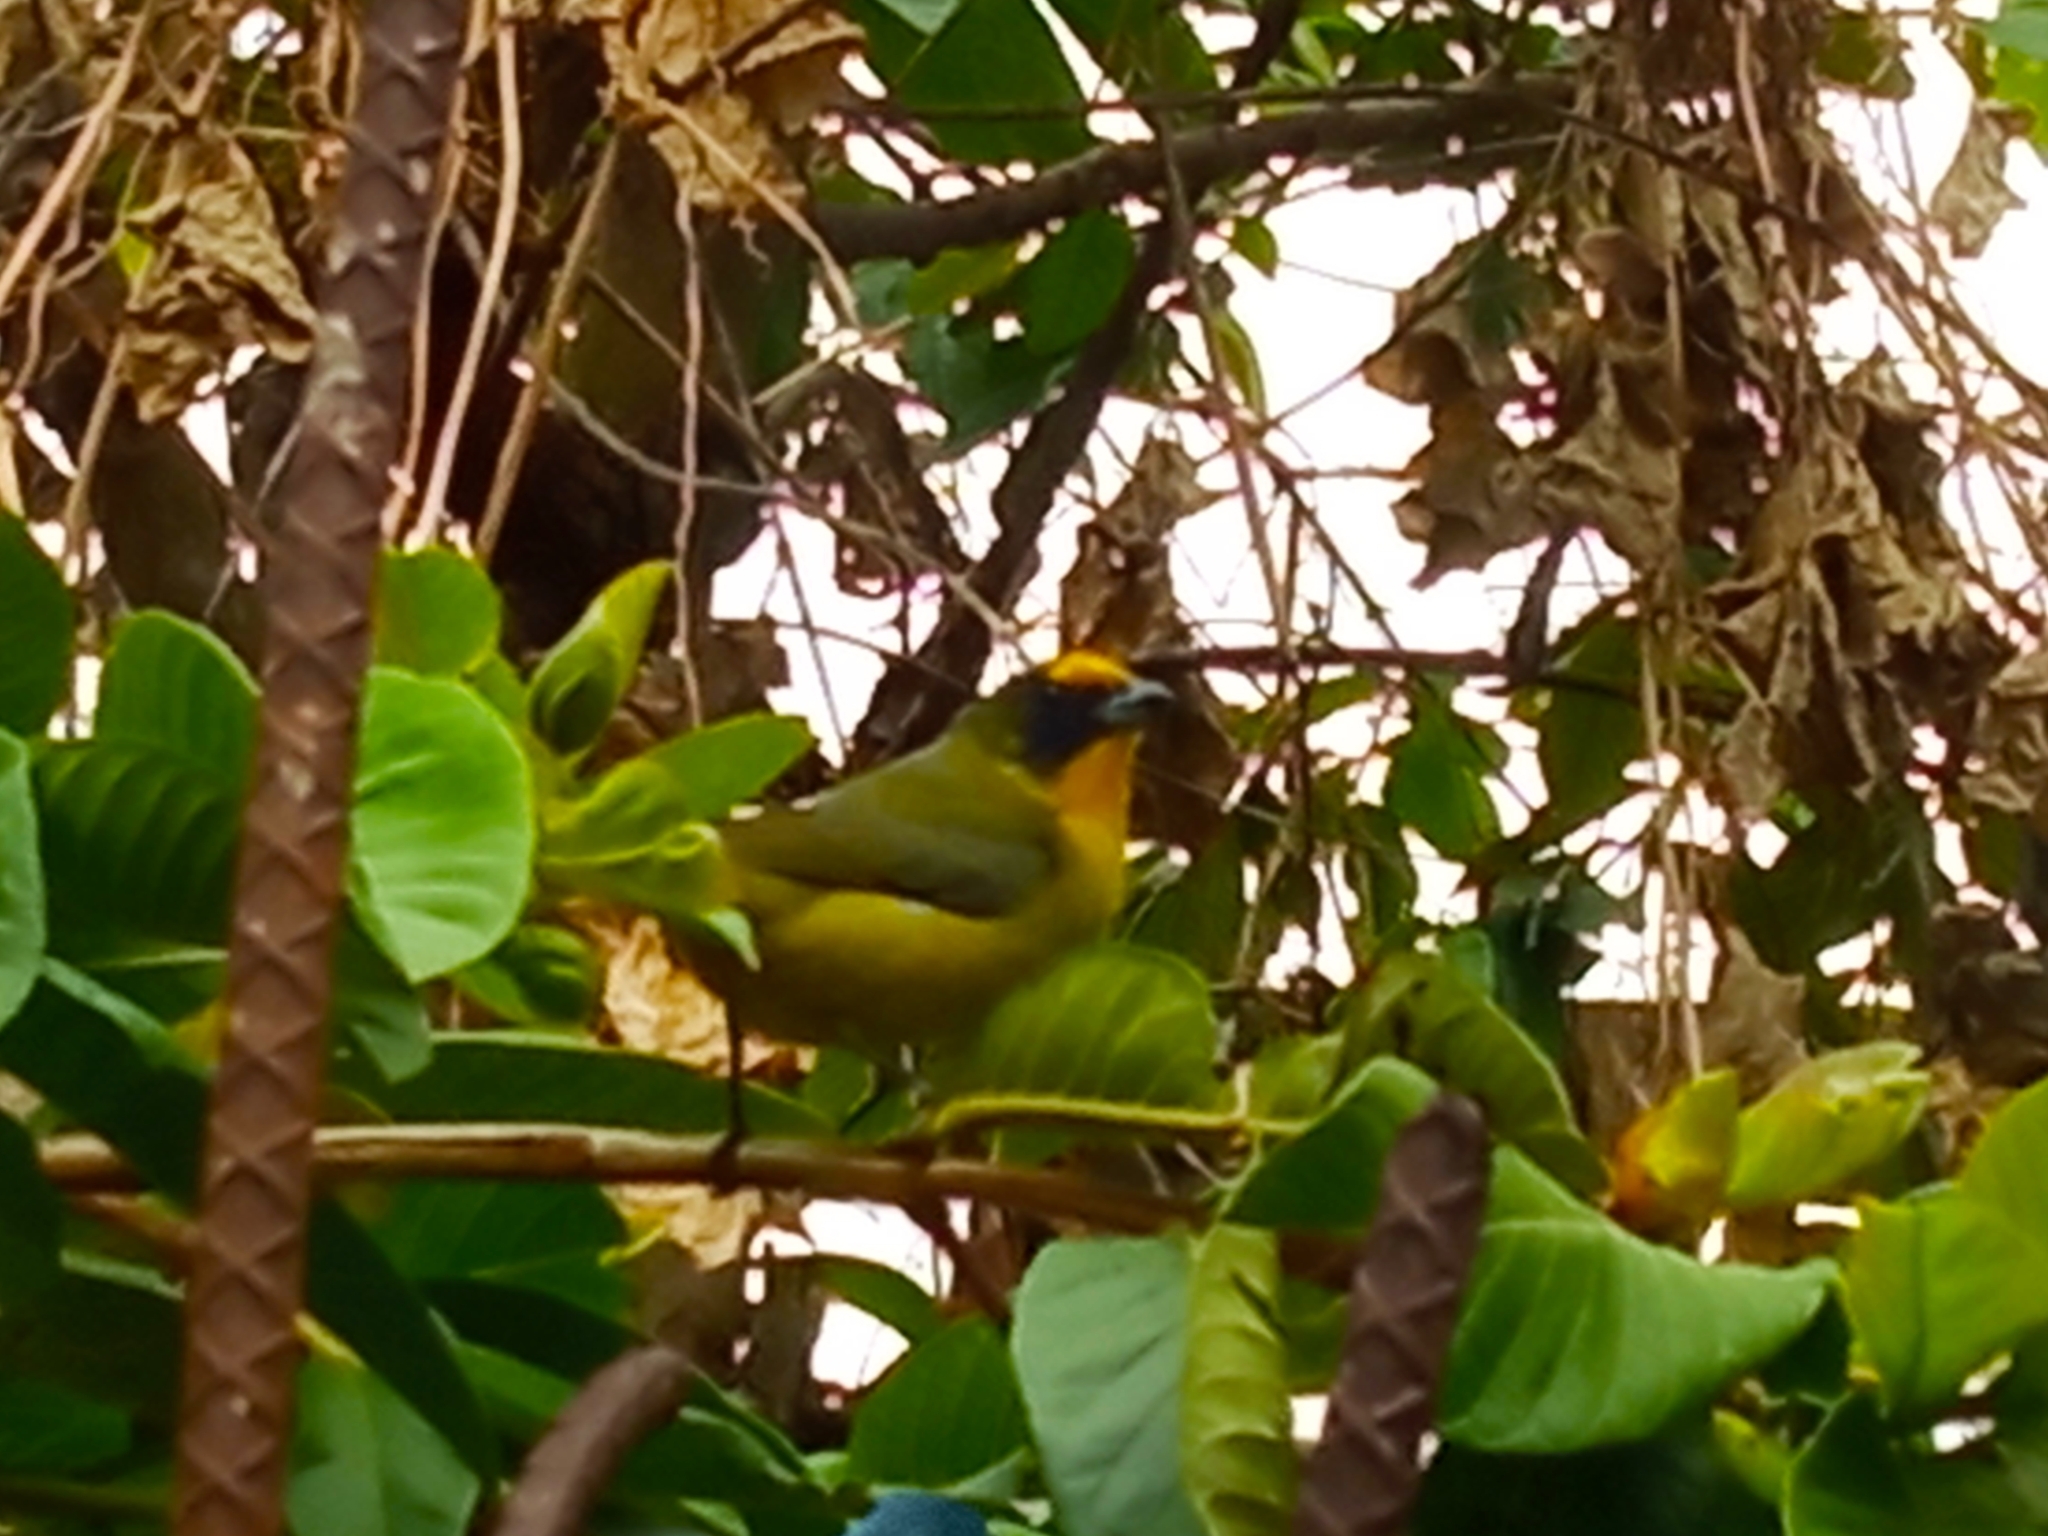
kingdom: Animalia
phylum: Chordata
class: Aves
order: Passeriformes
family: Fringillidae
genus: Euphonia
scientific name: Euphonia laniirostris
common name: Thick-billed euphonia
